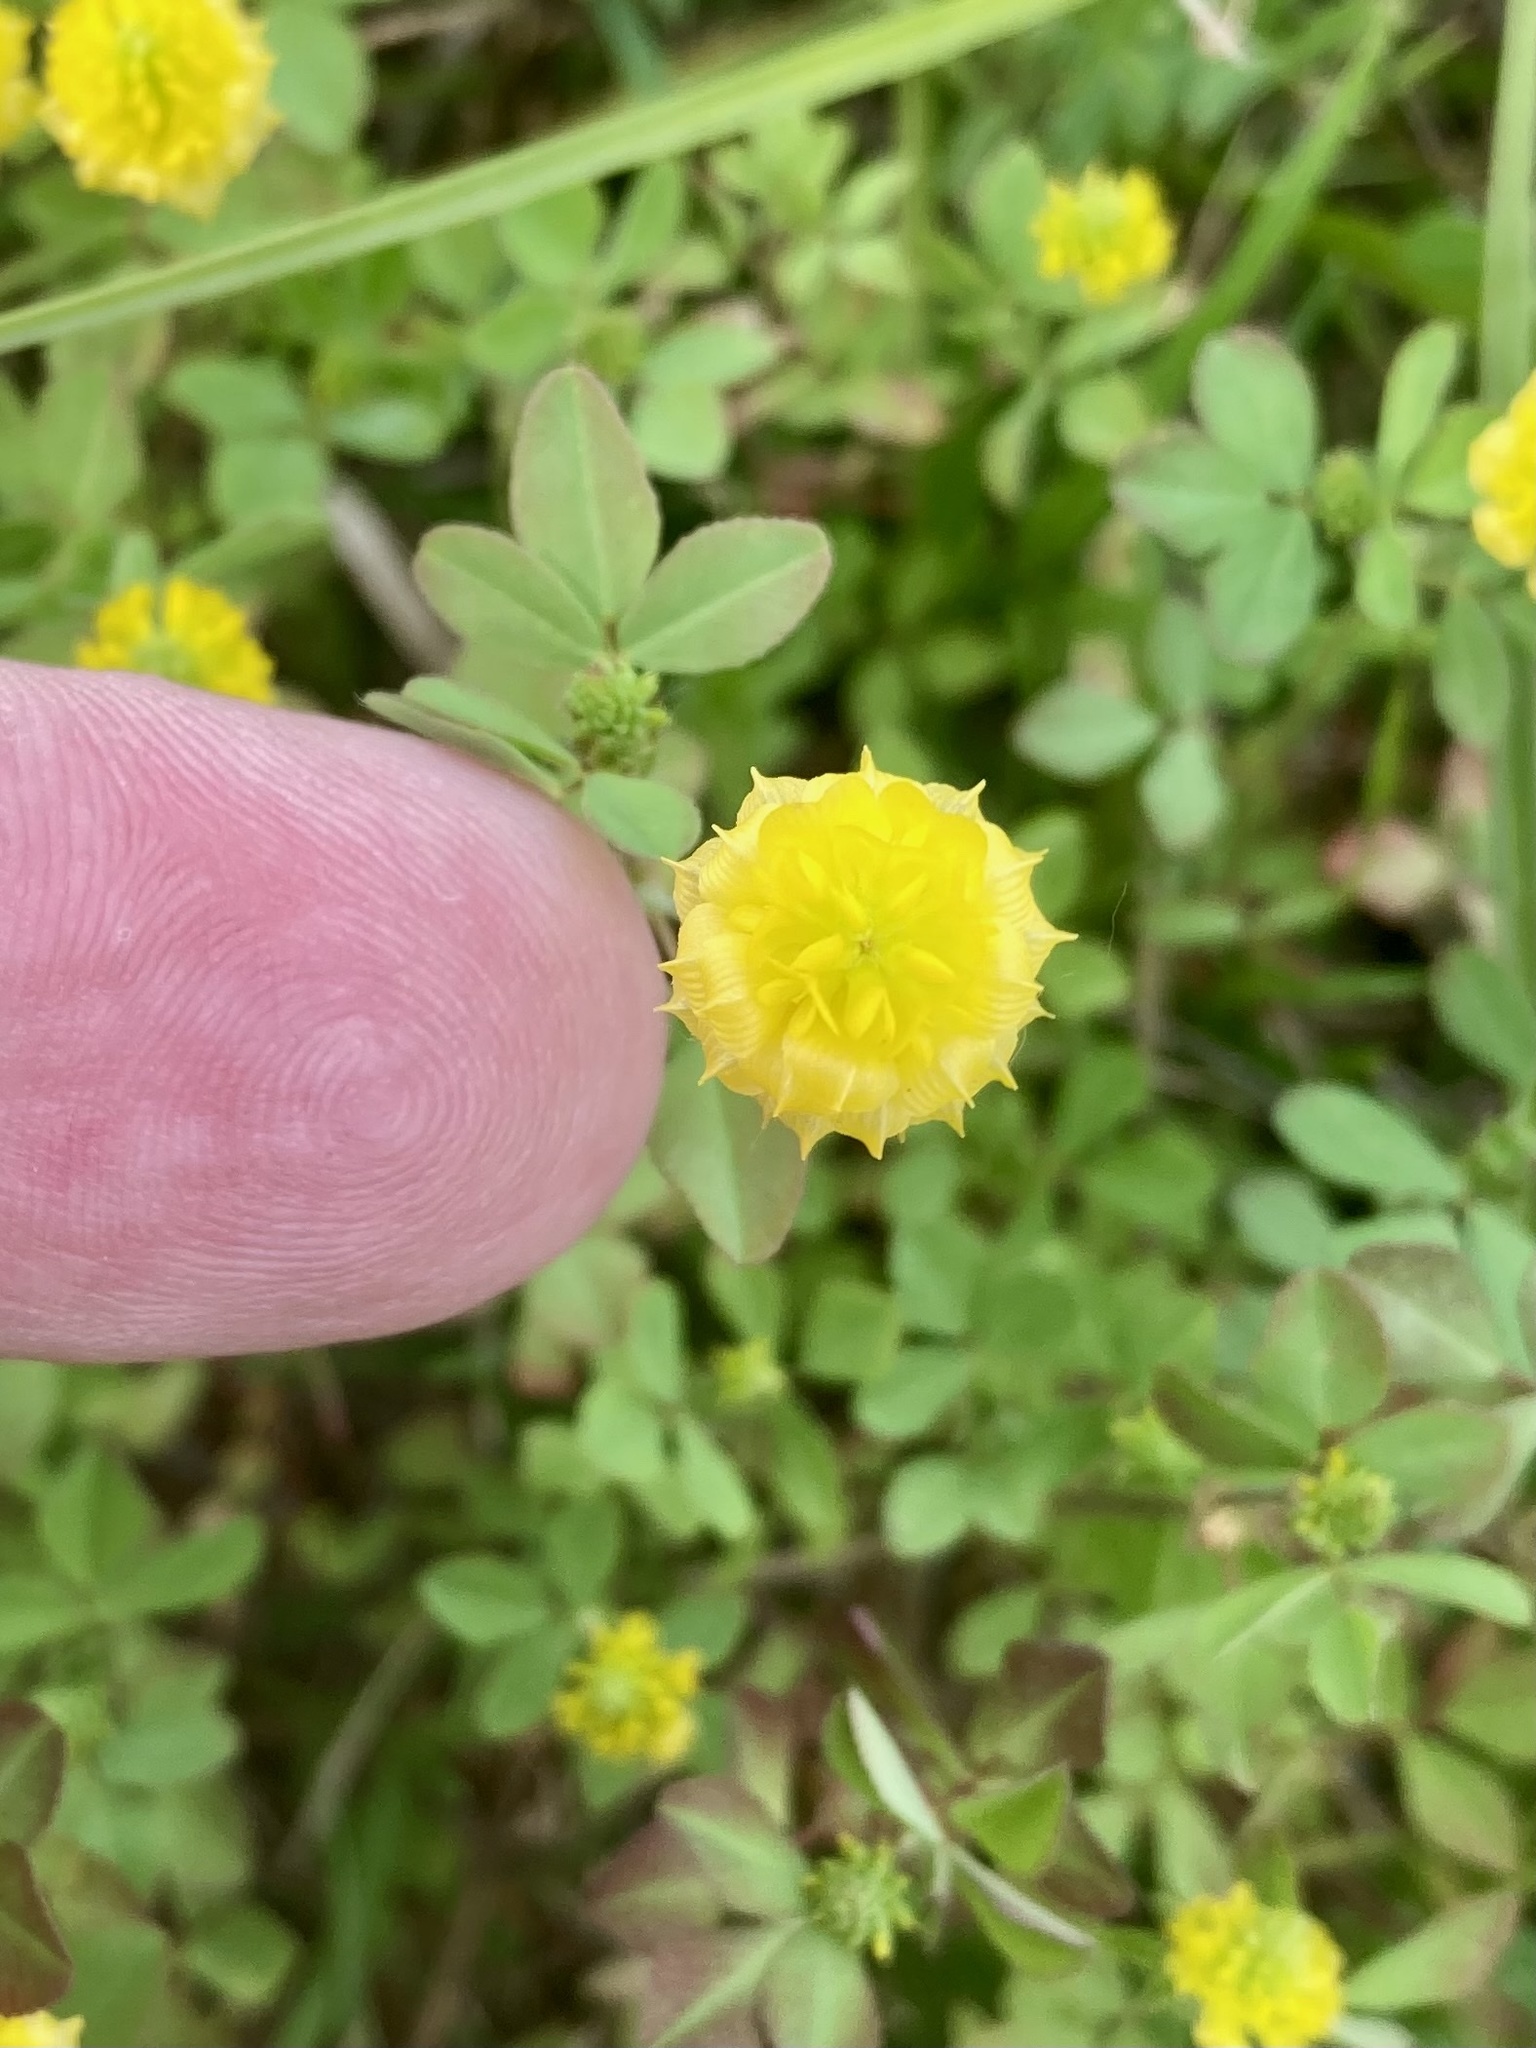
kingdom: Plantae
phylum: Tracheophyta
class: Magnoliopsida
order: Fabales
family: Fabaceae
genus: Trifolium
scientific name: Trifolium campestre
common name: Field clover
